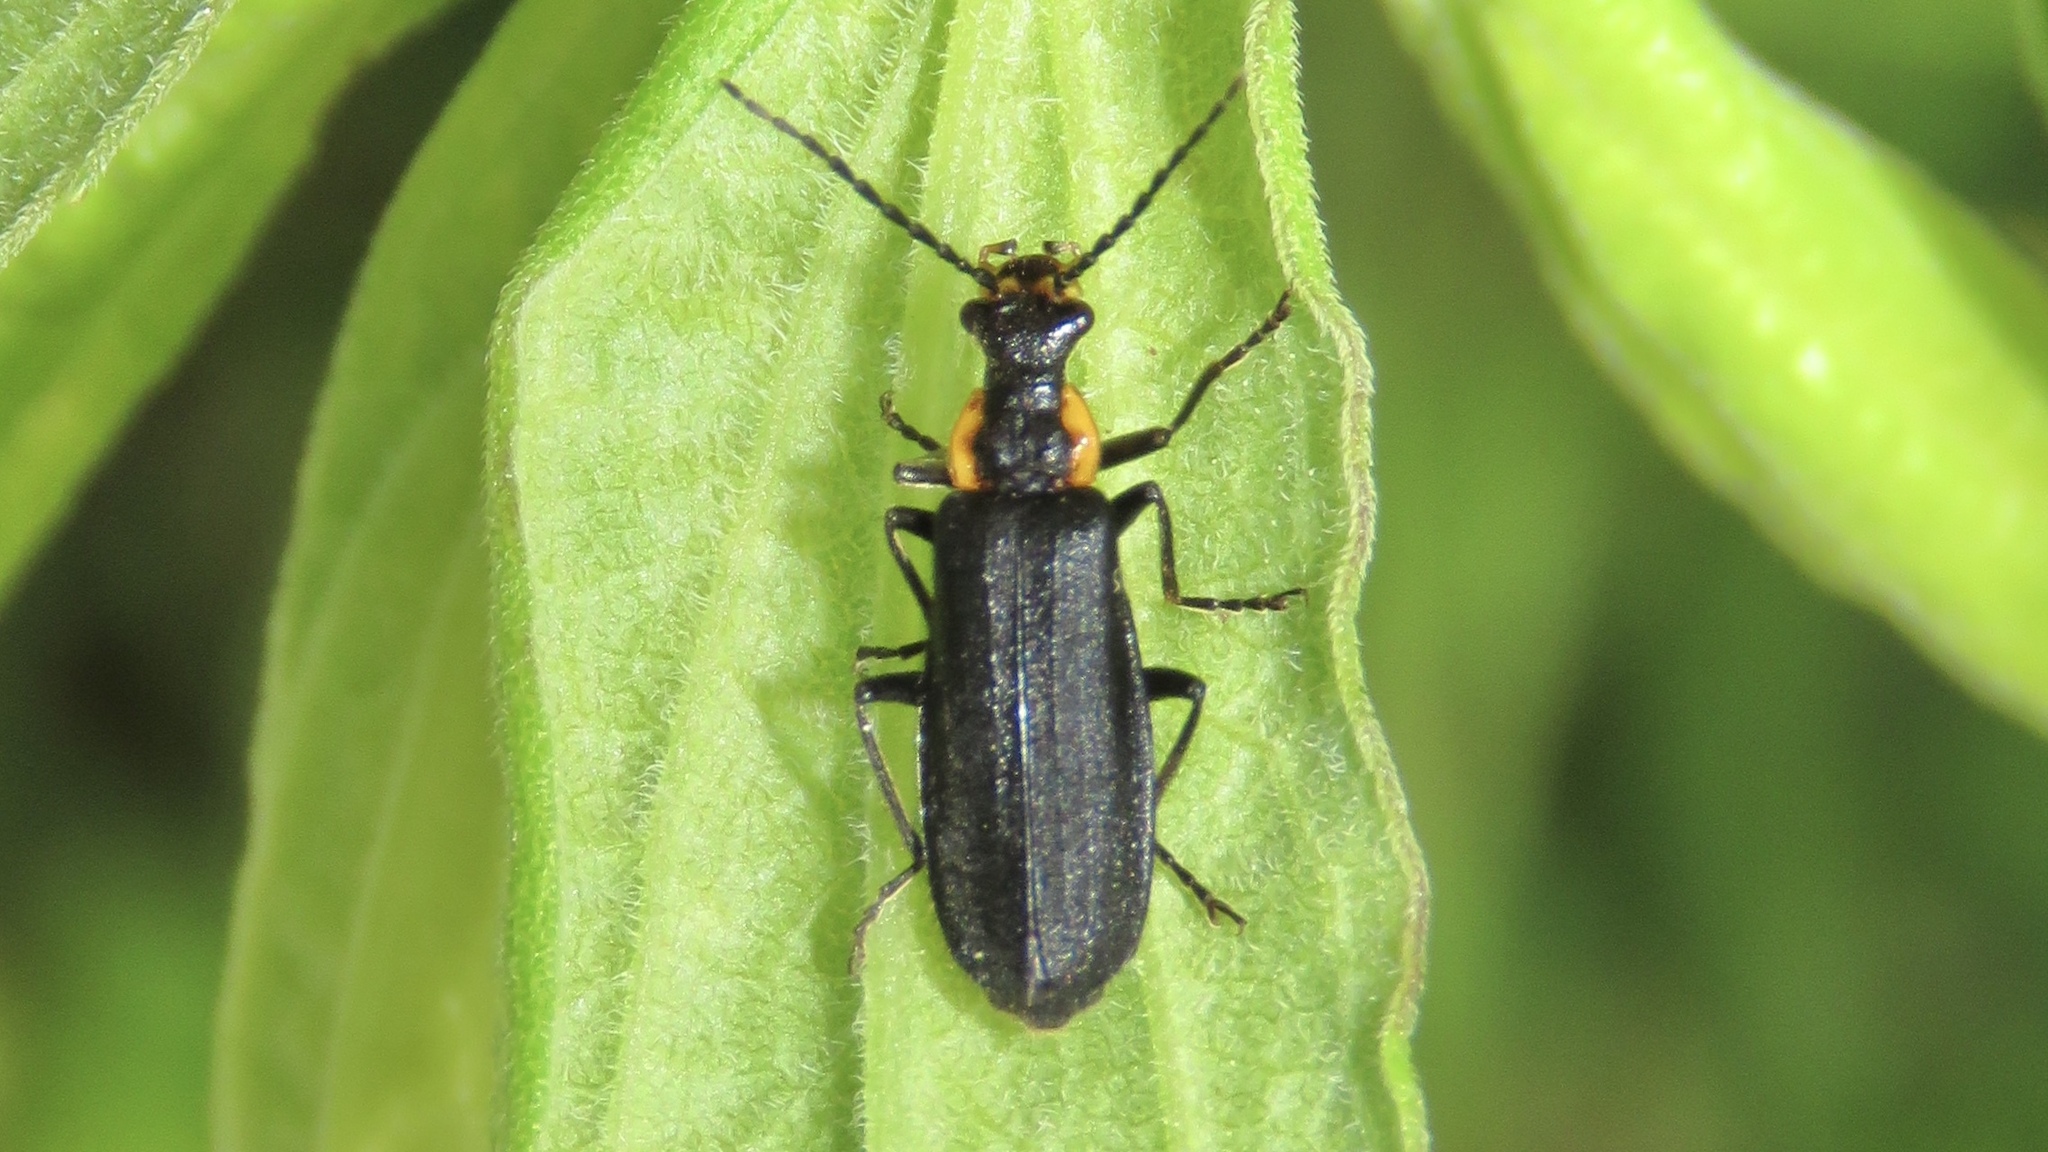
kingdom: Animalia
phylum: Arthropoda
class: Insecta
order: Coleoptera
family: Cantharidae
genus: Podabrus
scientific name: Podabrus rugosulus
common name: Wrinkled soldier beetle
